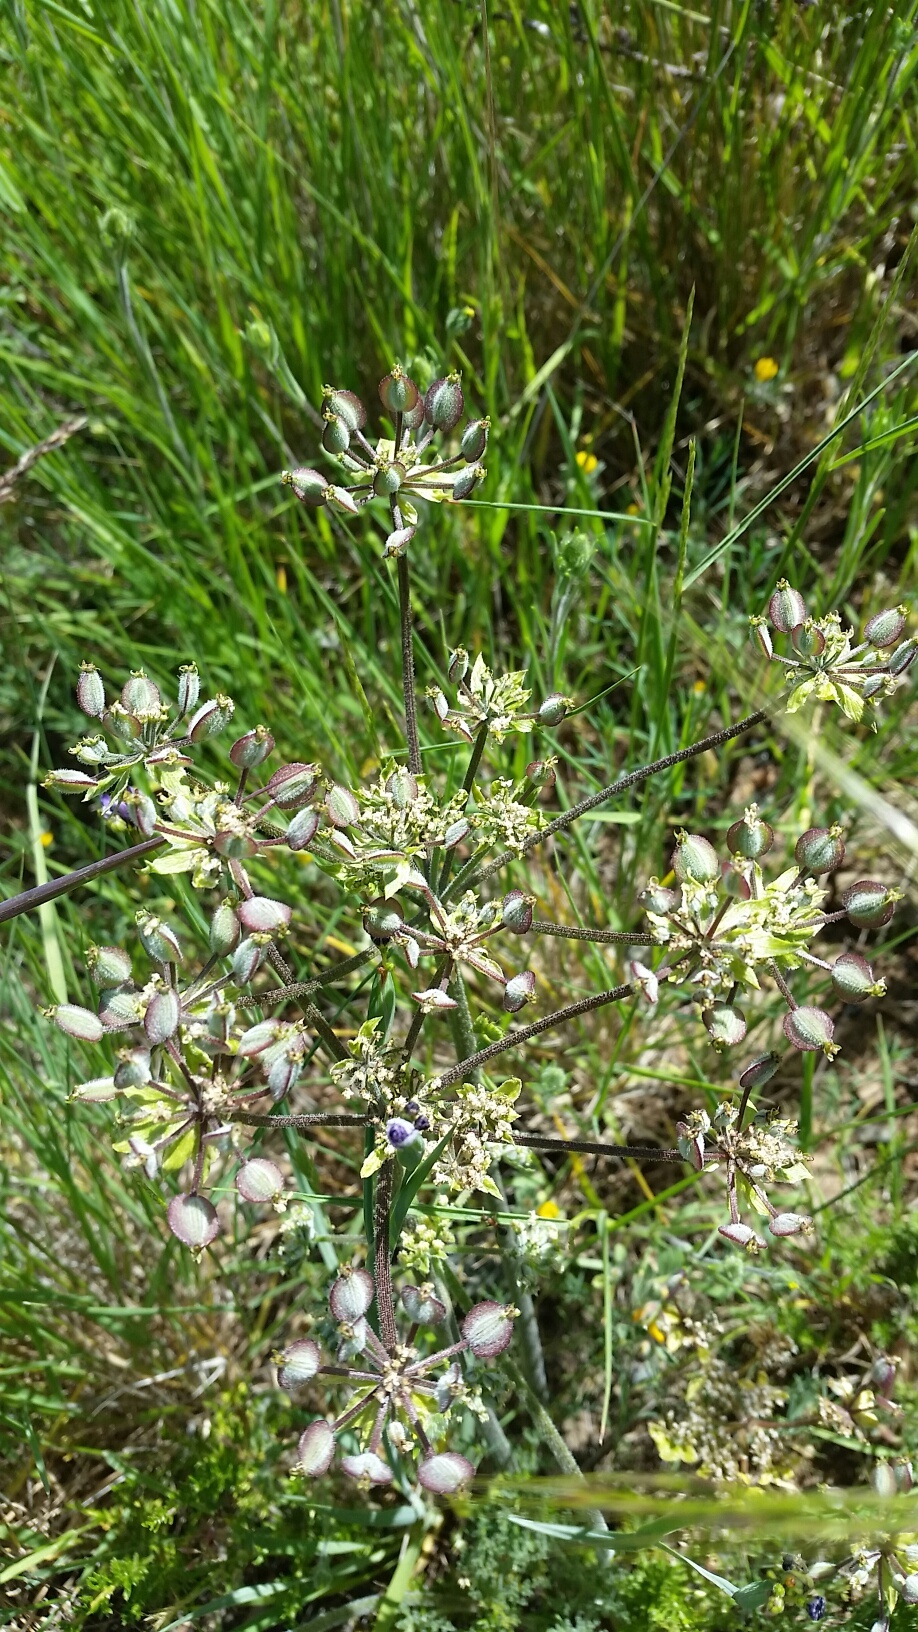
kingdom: Plantae
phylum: Tracheophyta
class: Magnoliopsida
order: Apiales
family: Apiaceae
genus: Lomatium
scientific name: Lomatium dasycarpum
